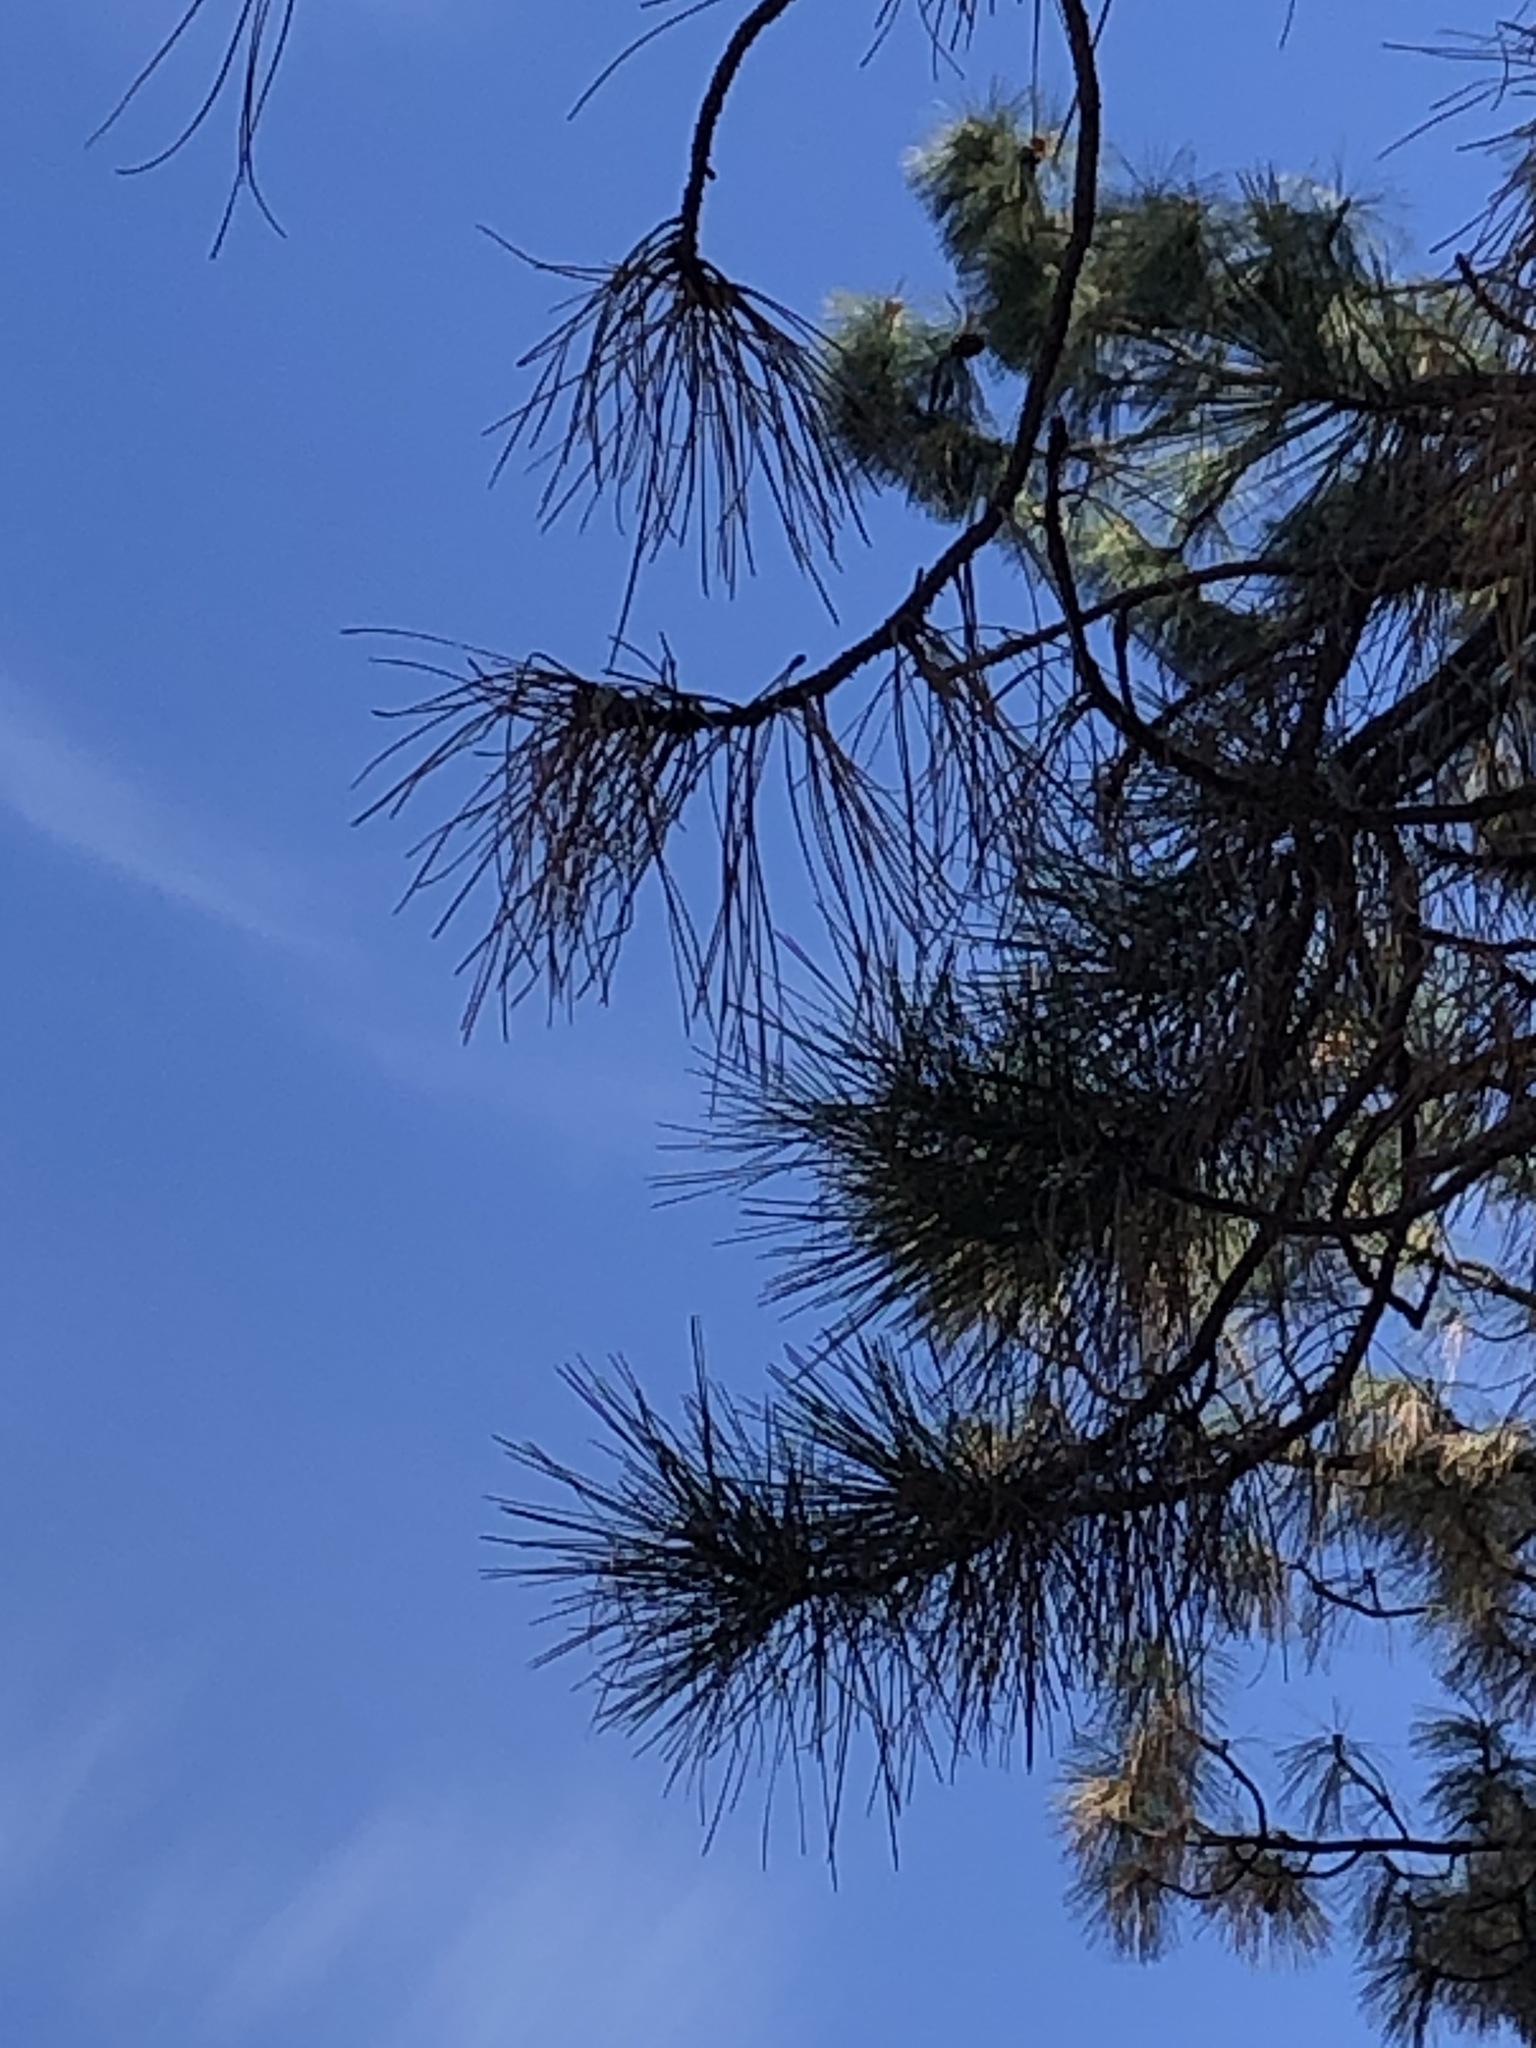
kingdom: Plantae
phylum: Tracheophyta
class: Pinopsida
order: Pinales
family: Pinaceae
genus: Pinus
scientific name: Pinus ponderosa
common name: Western yellow-pine
